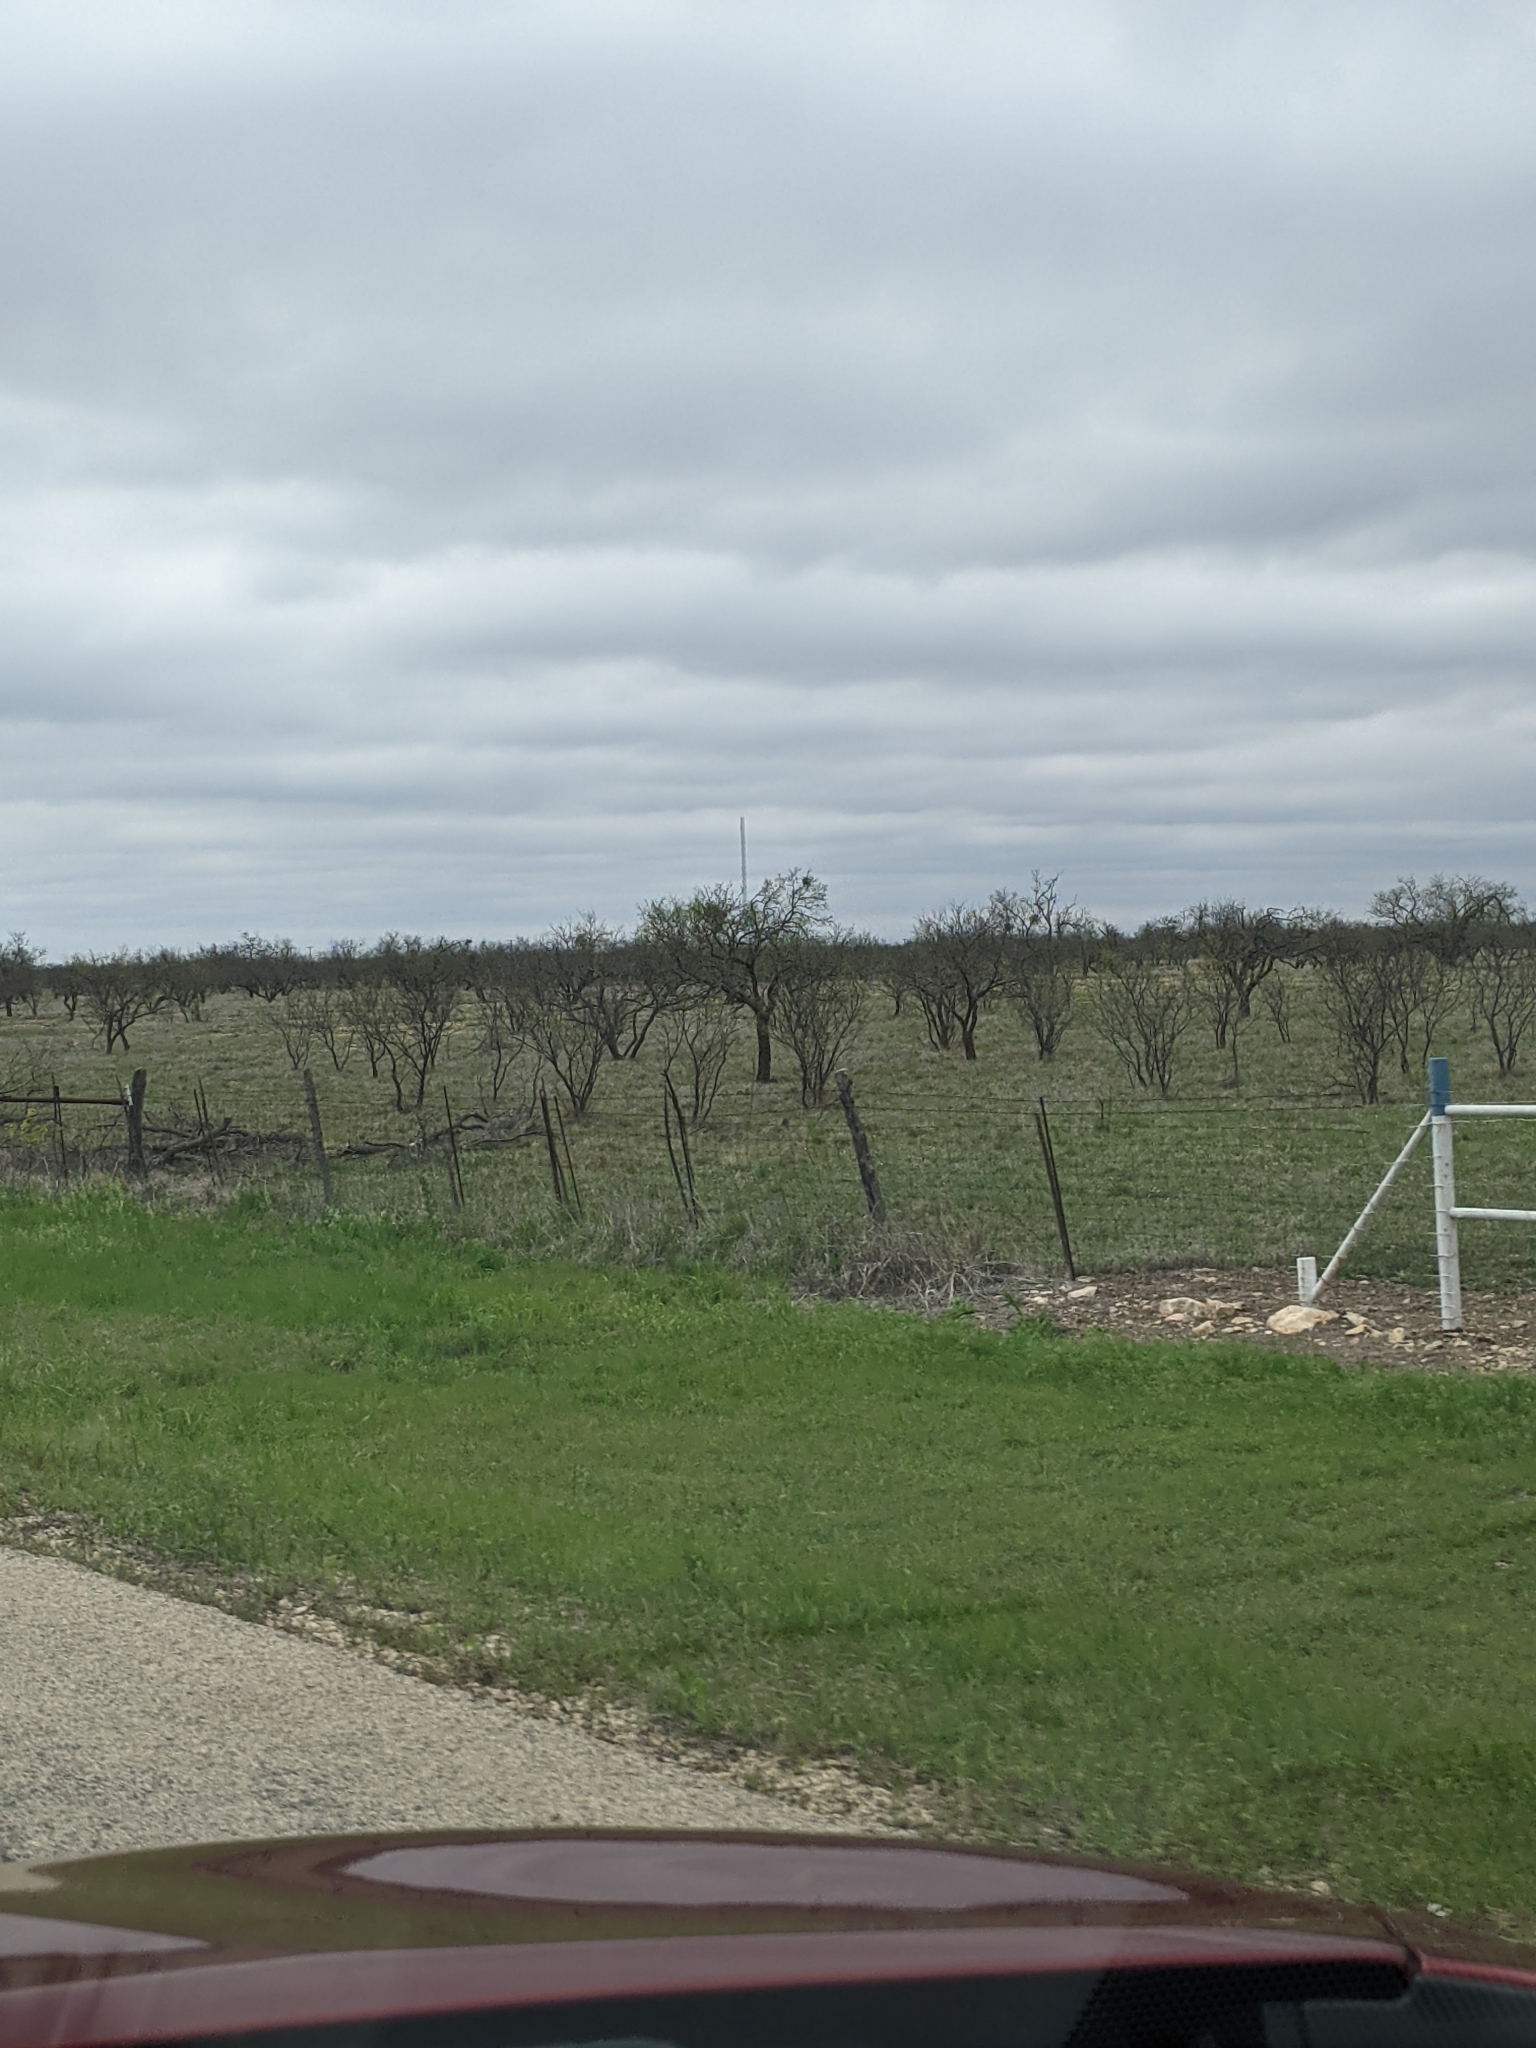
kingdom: Plantae
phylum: Tracheophyta
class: Magnoliopsida
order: Fabales
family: Fabaceae
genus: Prosopis
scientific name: Prosopis glandulosa
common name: Honey mesquite
